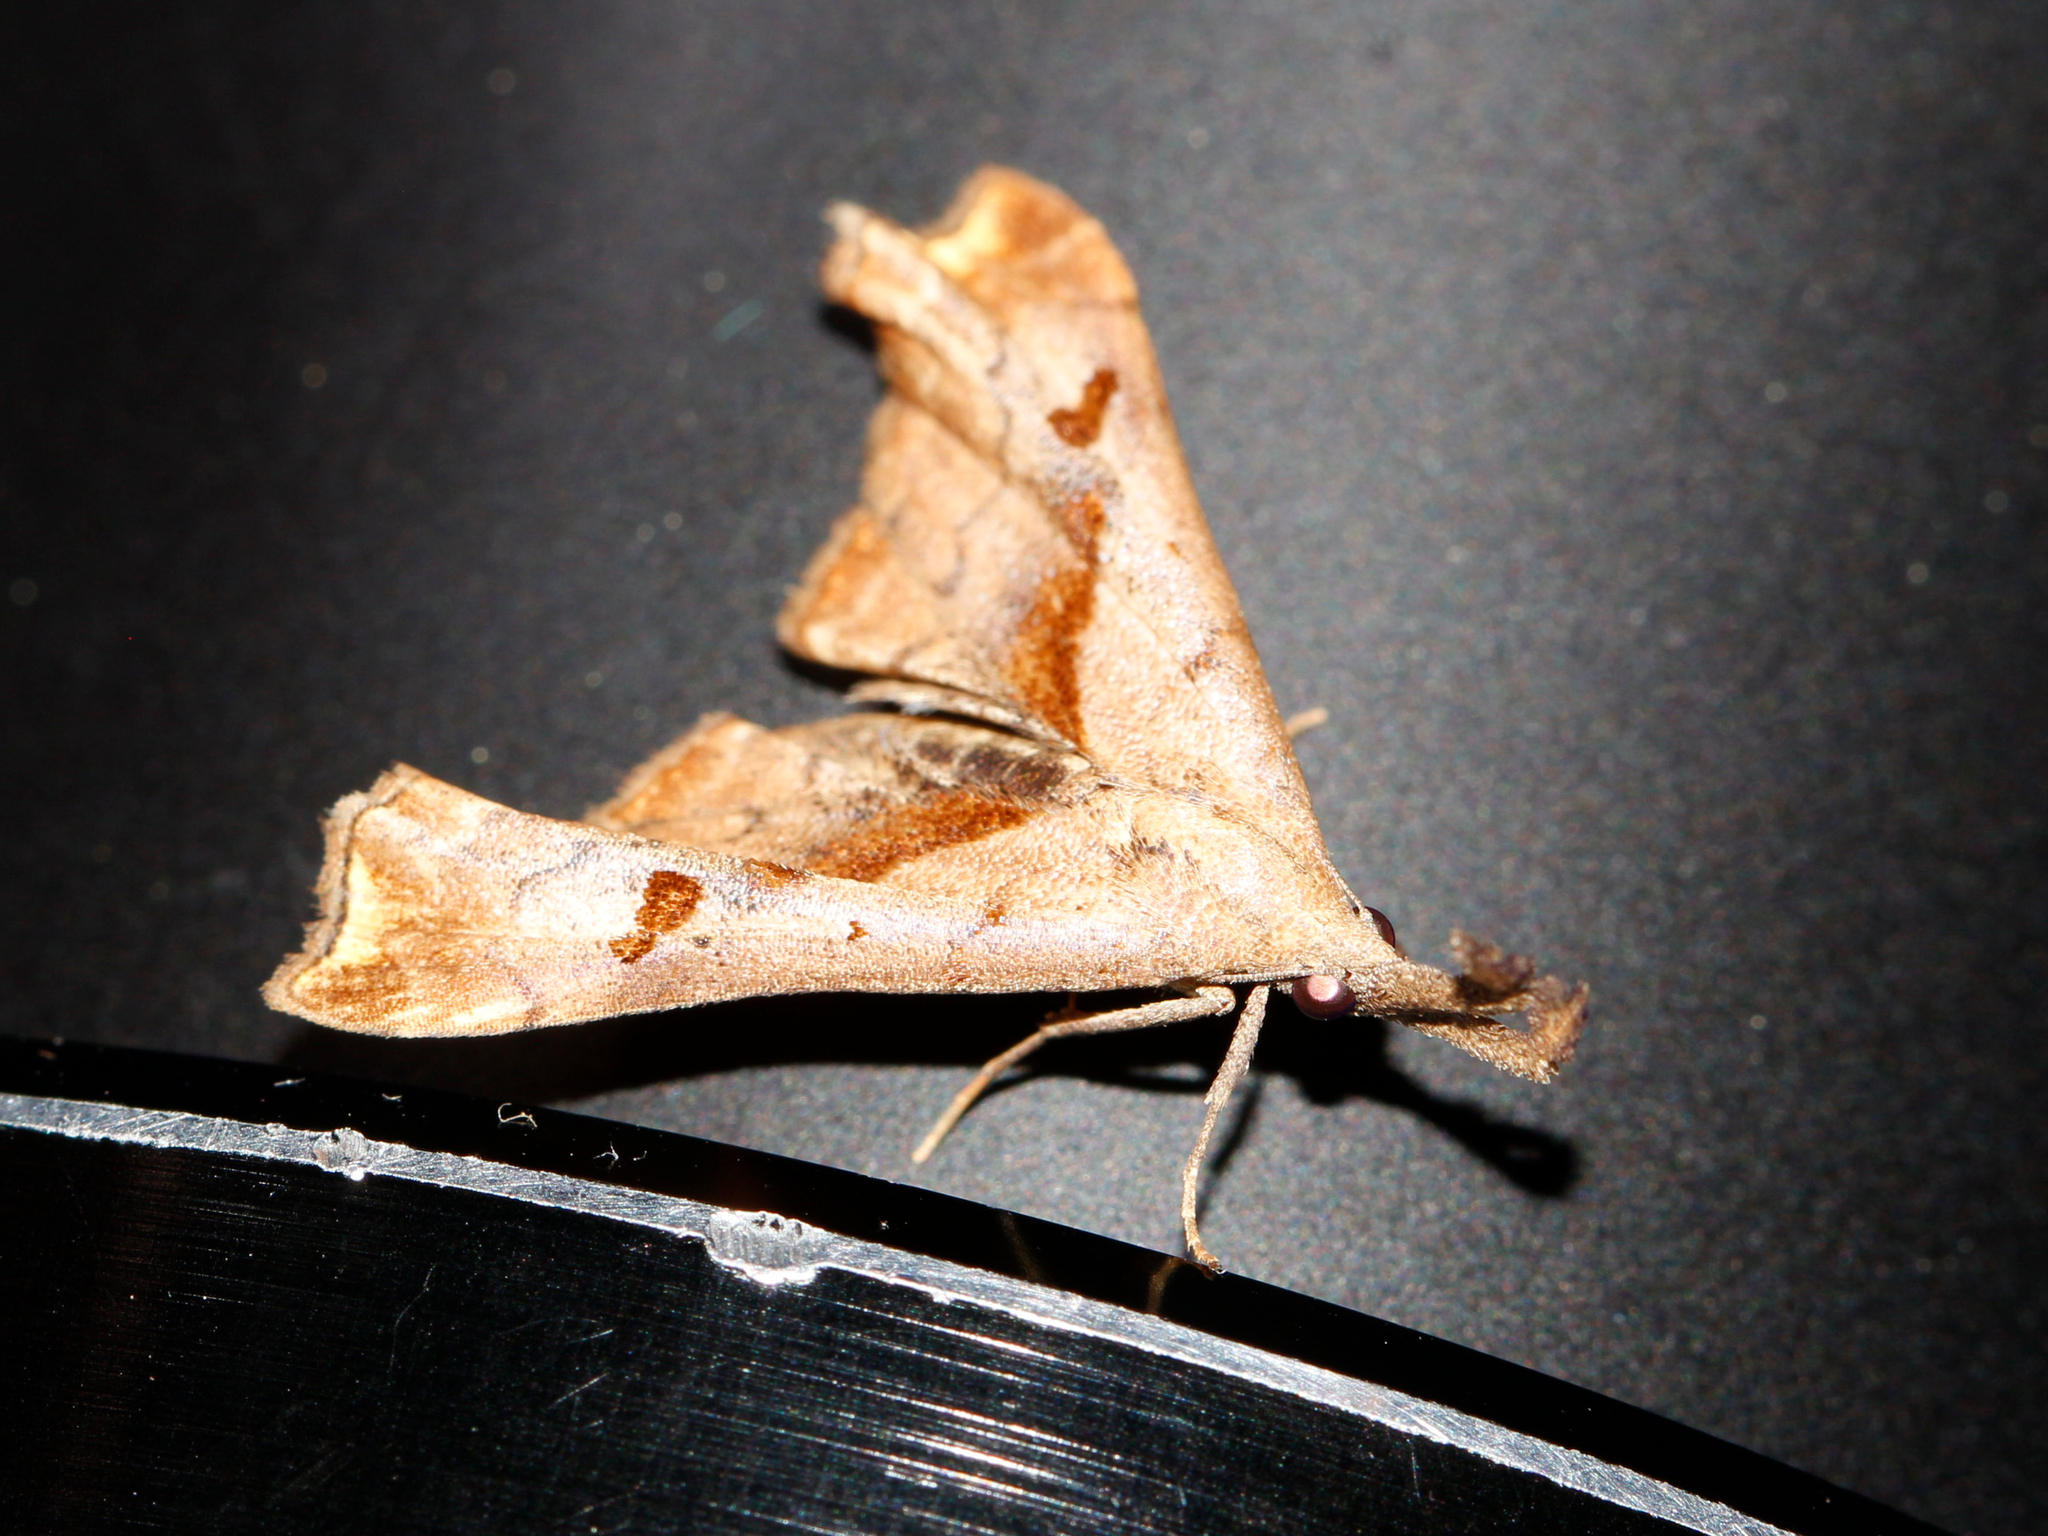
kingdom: Animalia
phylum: Arthropoda
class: Insecta
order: Lepidoptera
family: Erebidae
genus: Palthis
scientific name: Palthis angulalis
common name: Dark-spotted palthis moth
